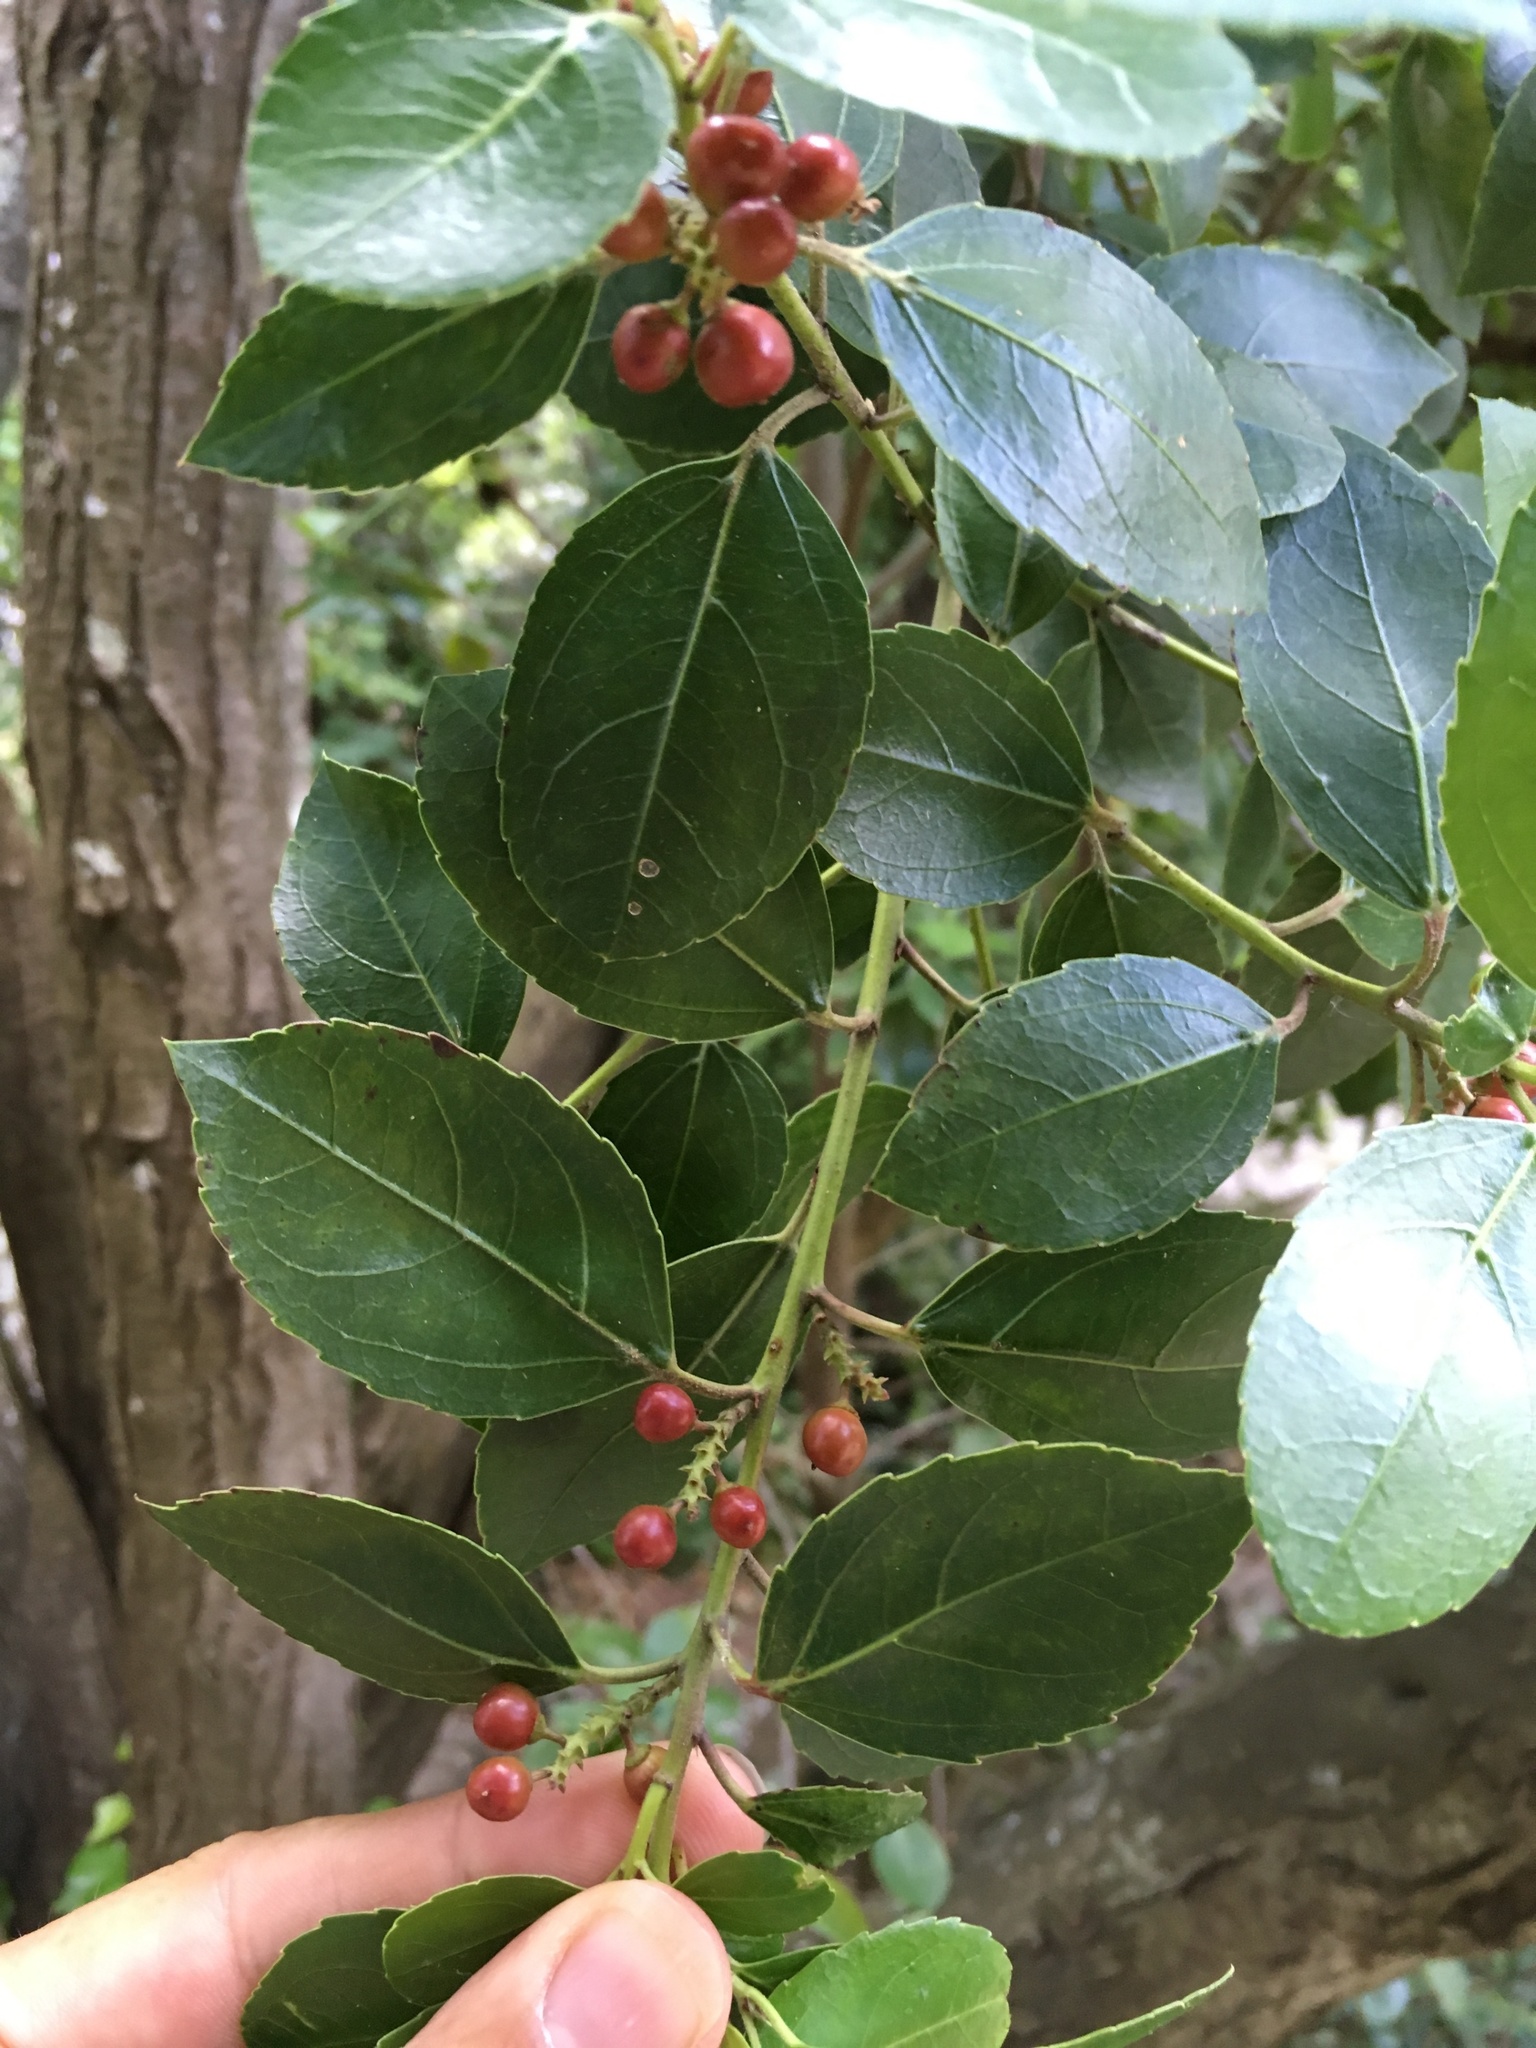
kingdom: Plantae
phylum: Tracheophyta
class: Magnoliopsida
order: Rosales
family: Rhamnaceae
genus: Rhamnus
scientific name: Rhamnus alaternus
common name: Mediterranean buckthorn
